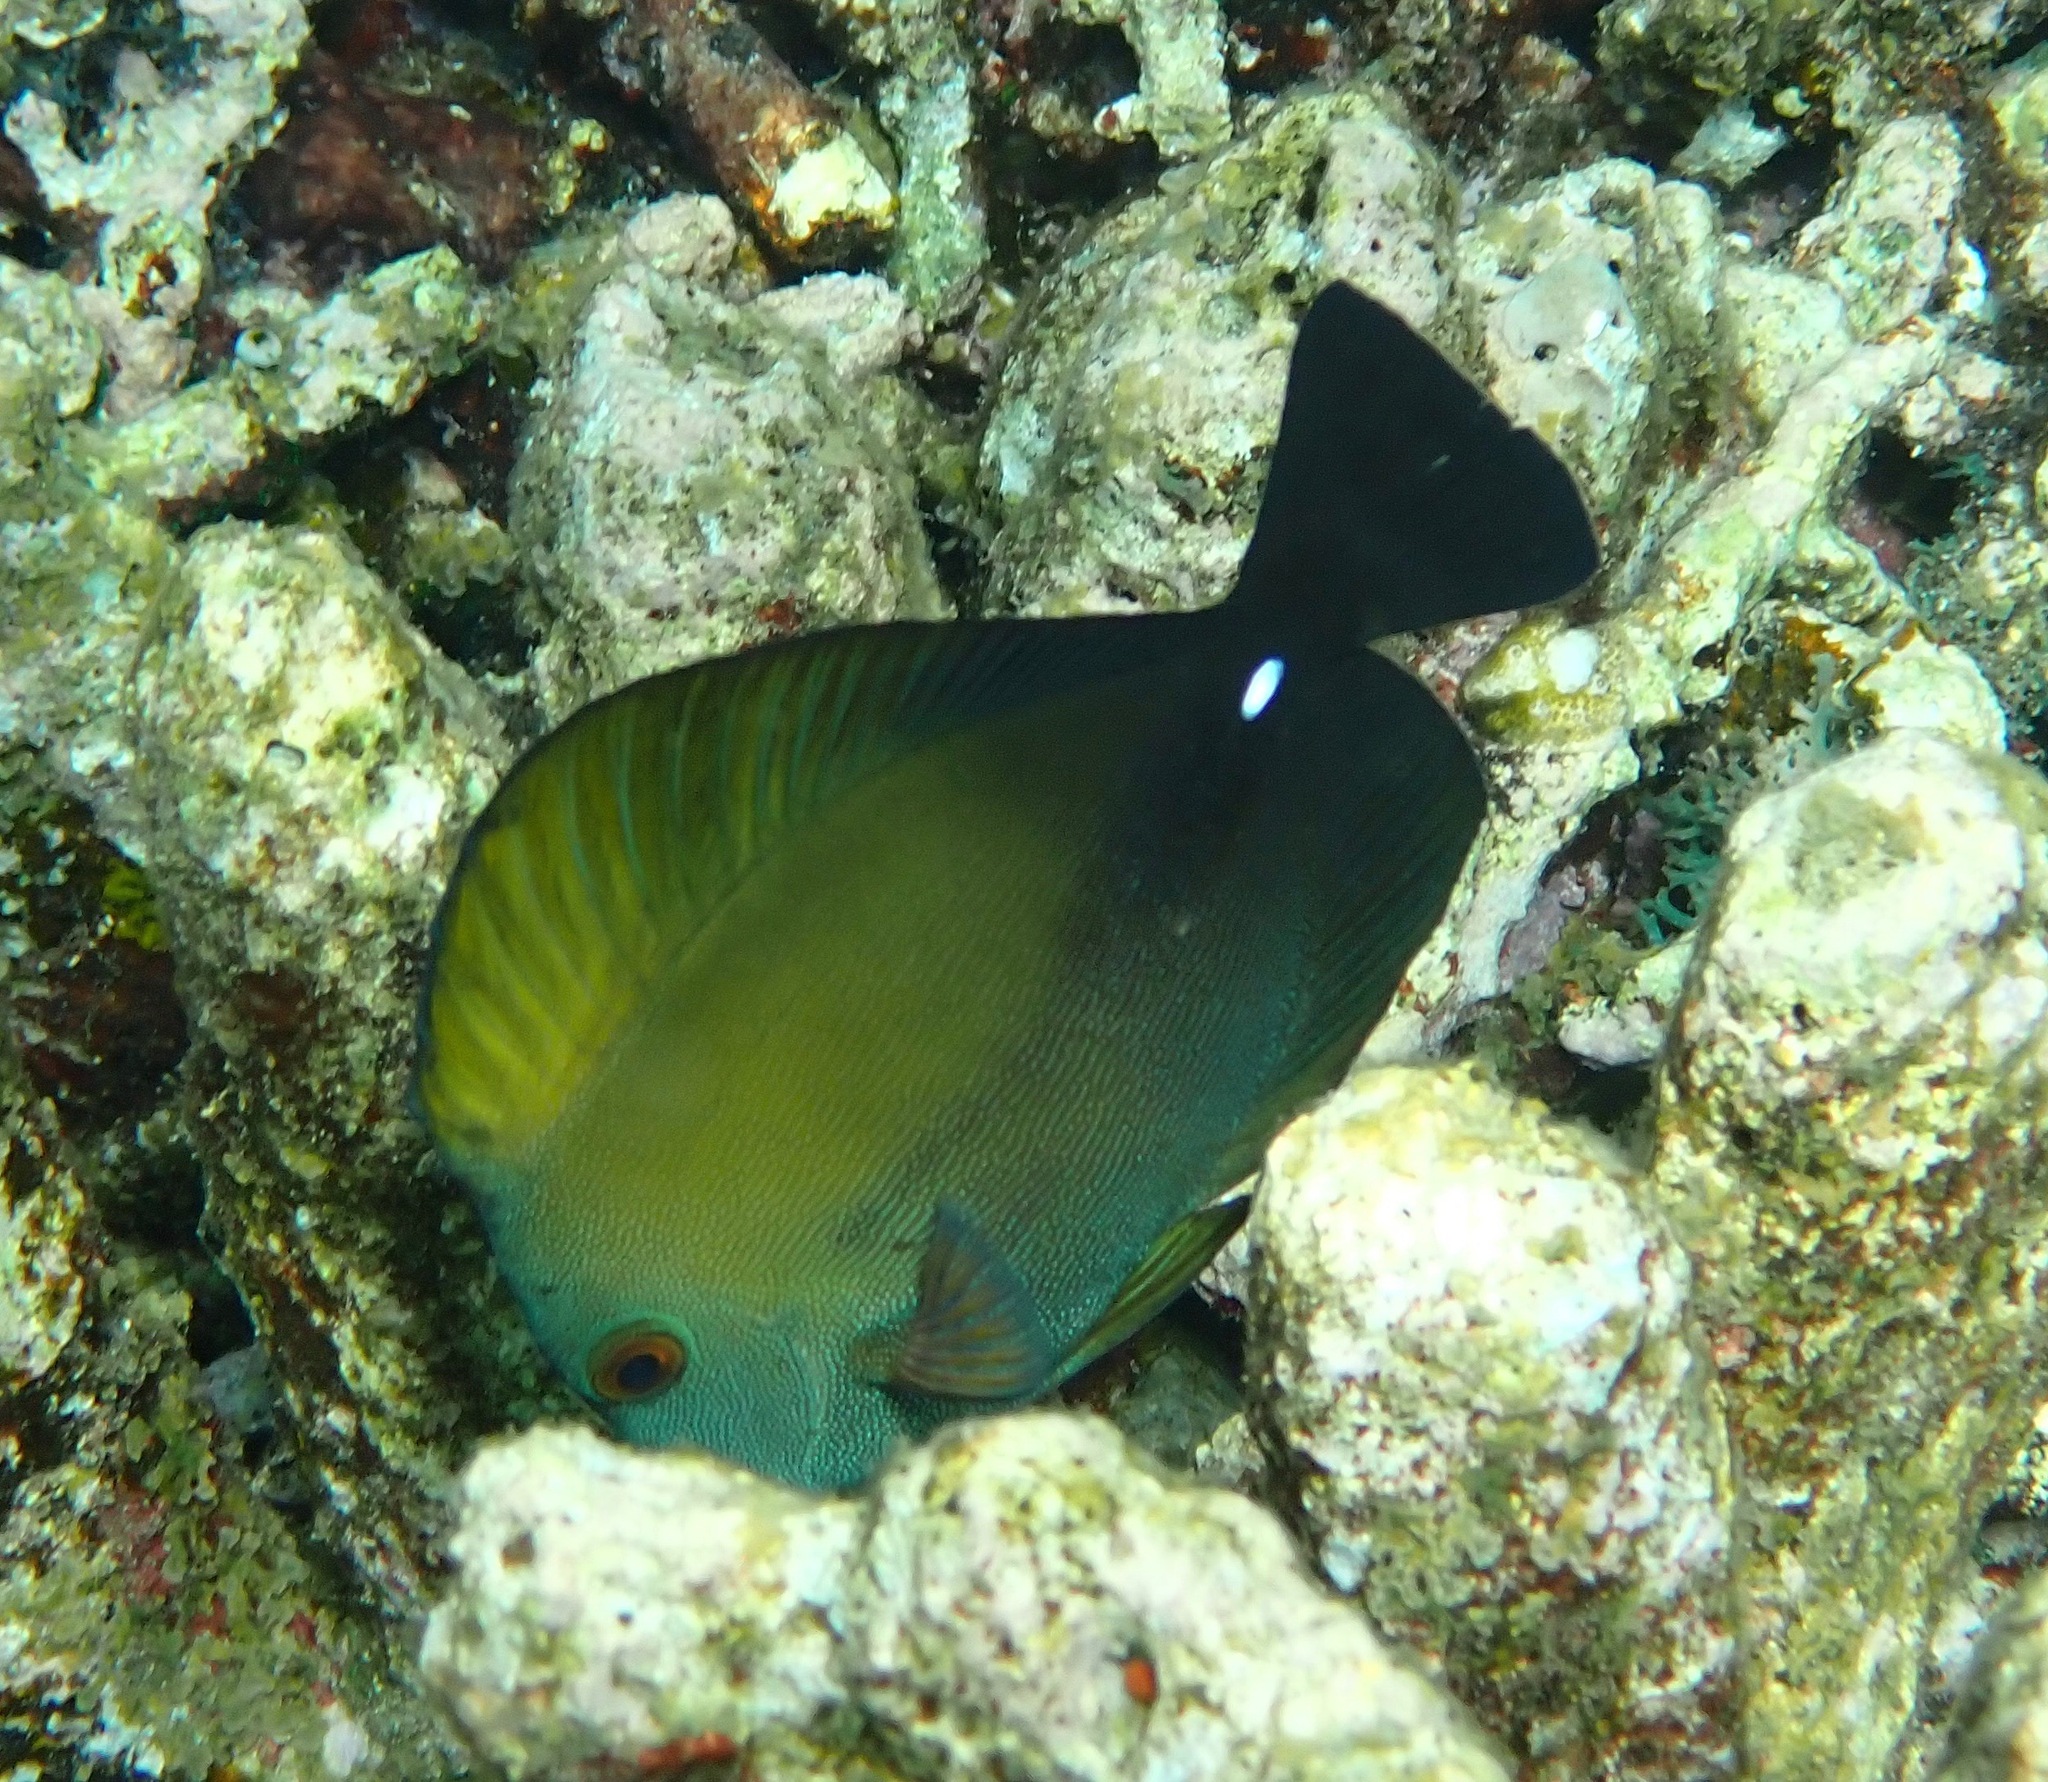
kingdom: Animalia
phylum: Chordata
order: Perciformes
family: Acanthuridae
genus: Zebrasoma
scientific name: Zebrasoma scopas
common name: Twotone tang
